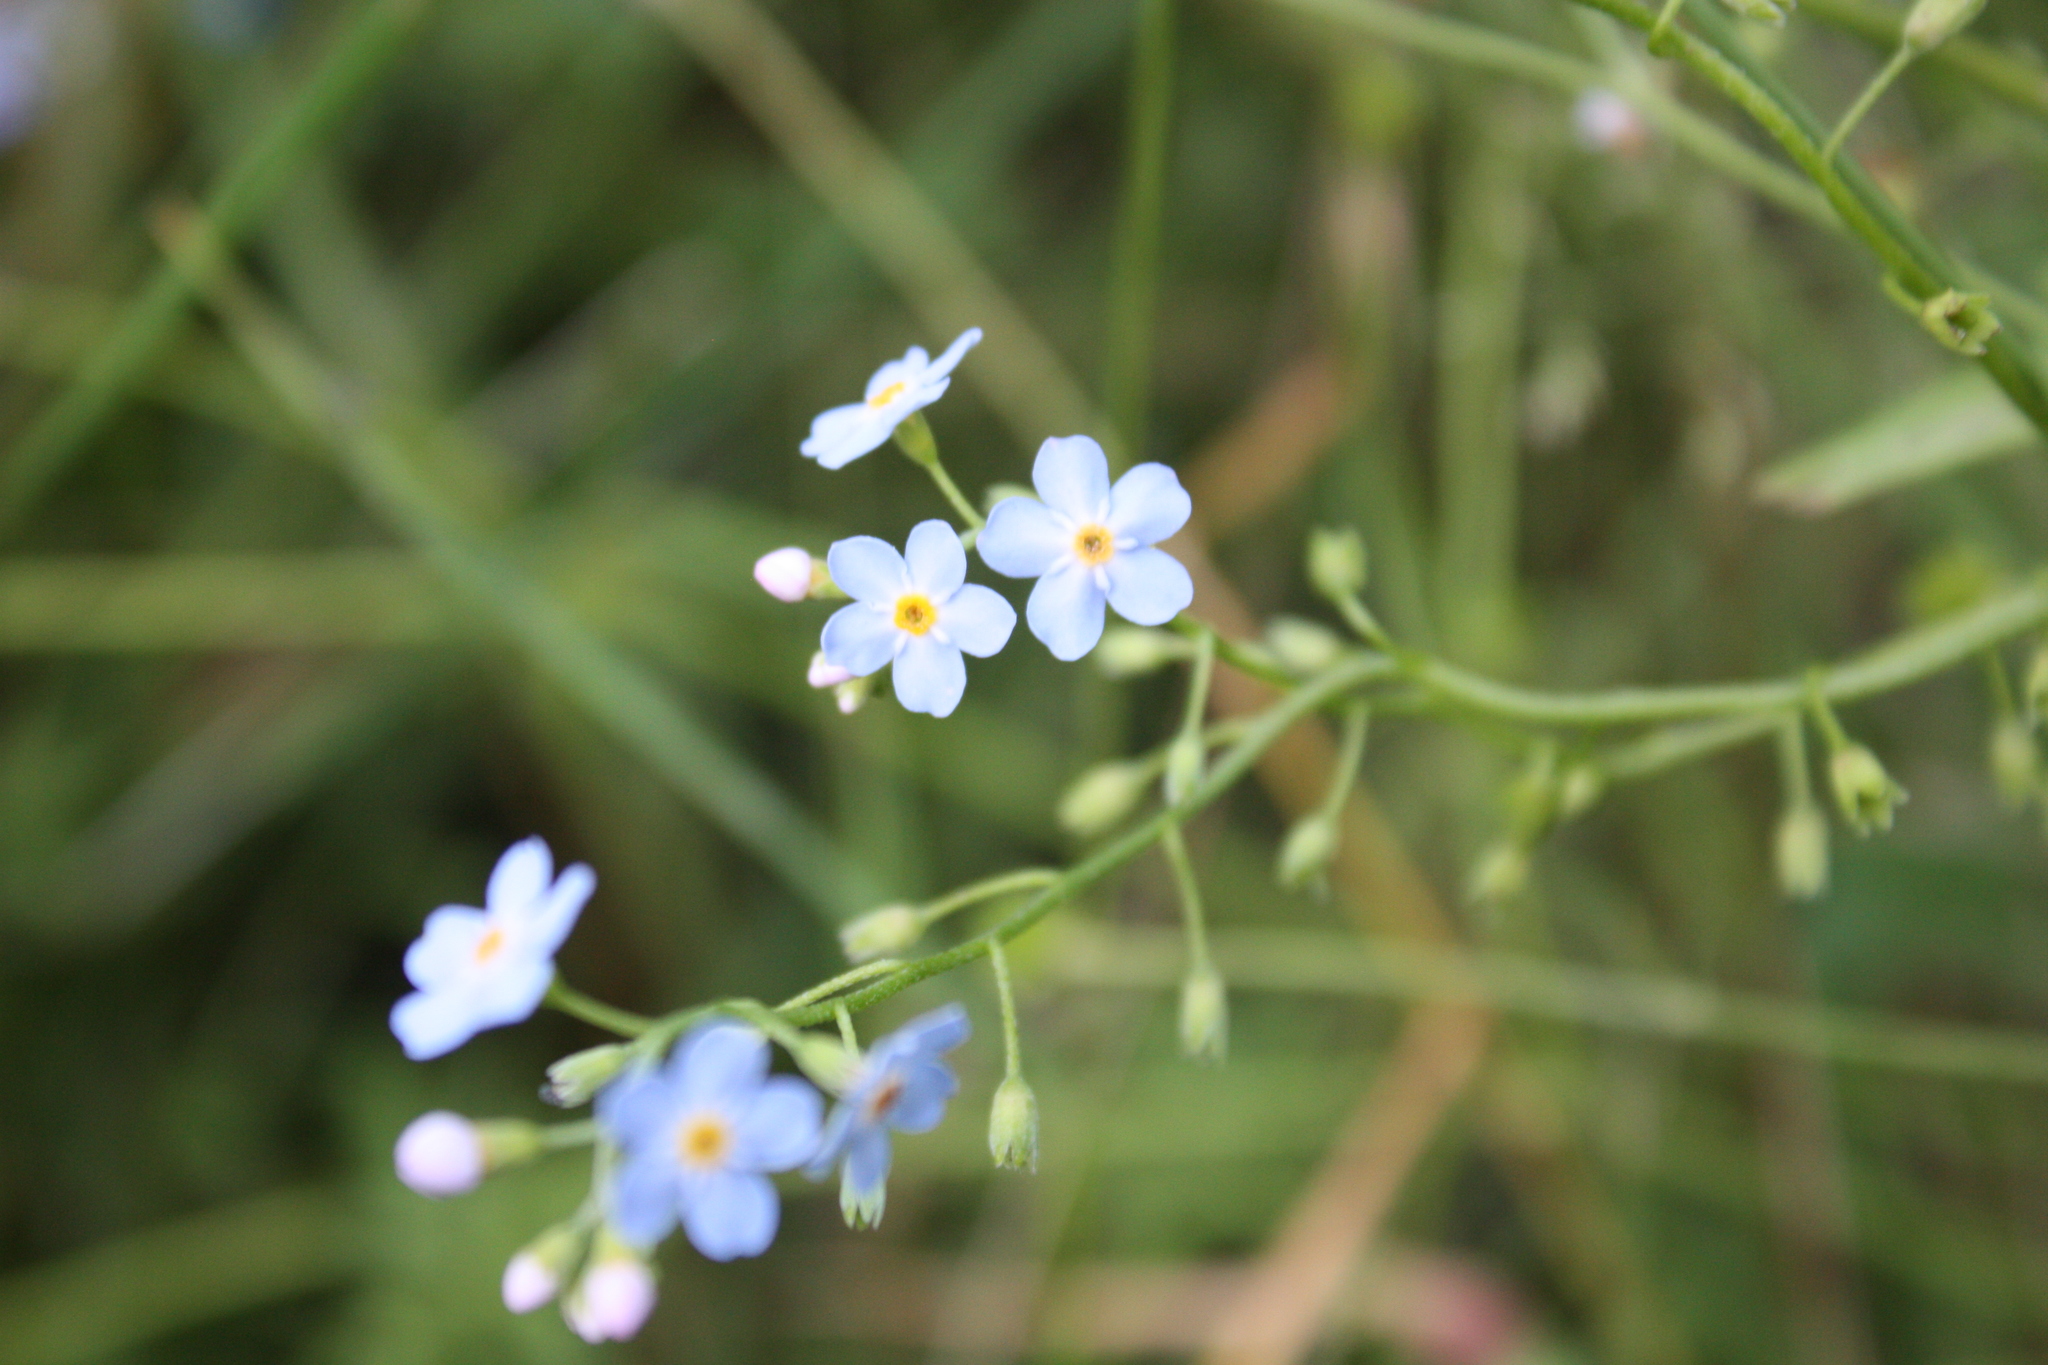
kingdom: Plantae
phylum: Tracheophyta
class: Magnoliopsida
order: Boraginales
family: Boraginaceae
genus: Myosotis
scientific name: Myosotis sylvatica
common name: Wood forget-me-not
